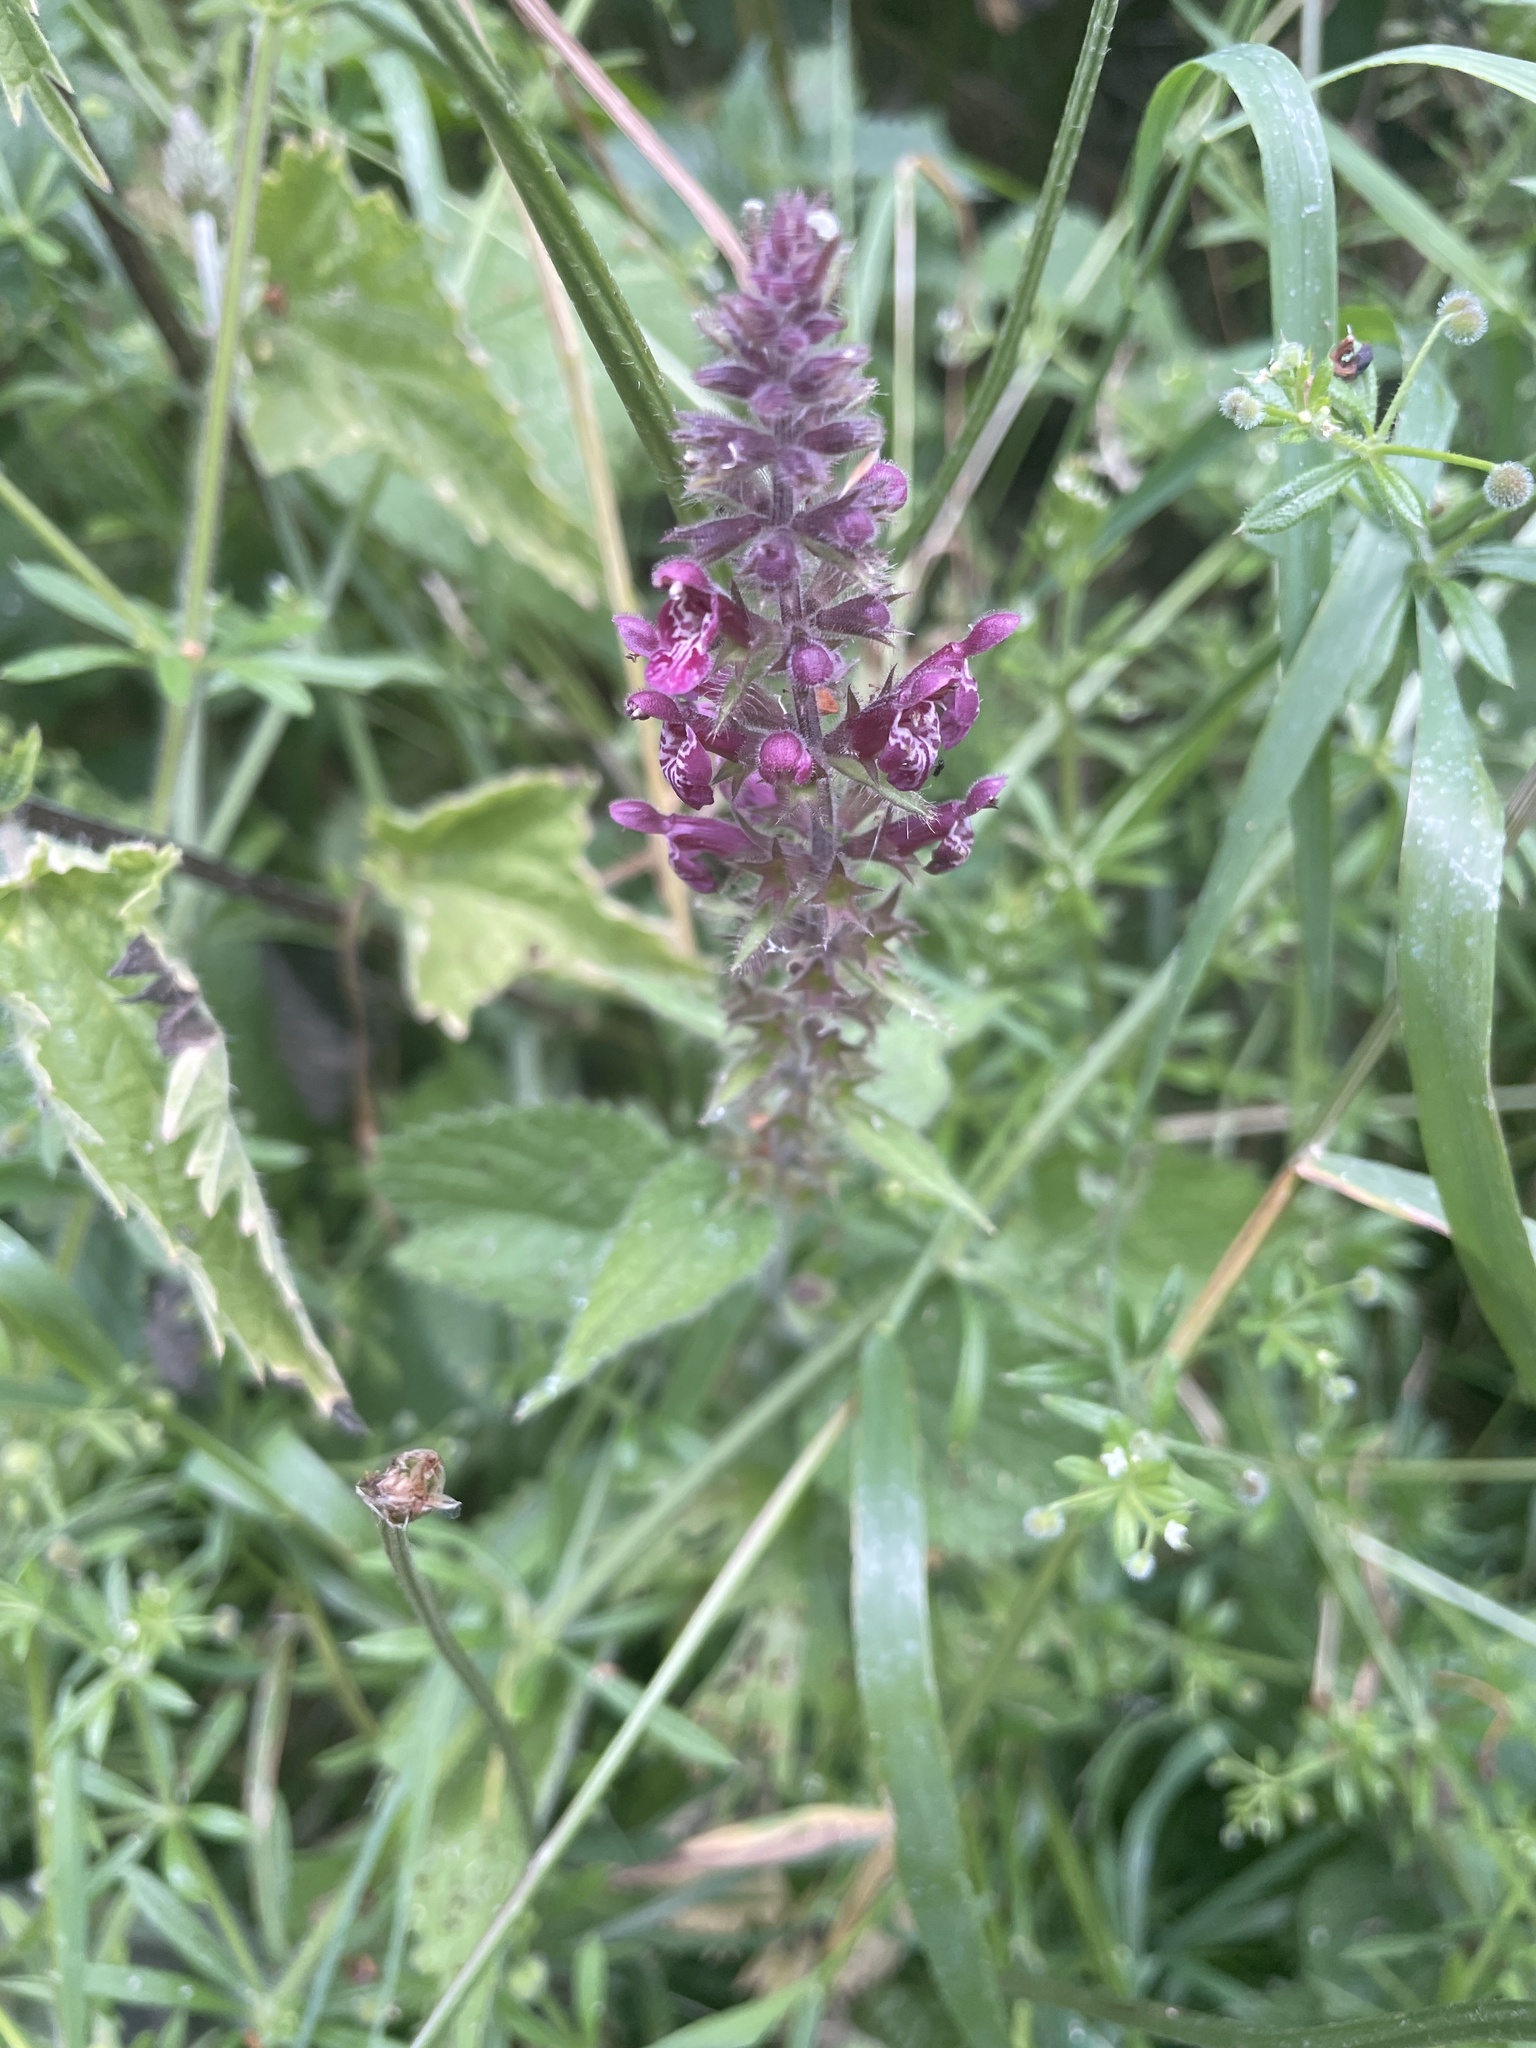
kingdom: Plantae
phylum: Tracheophyta
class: Magnoliopsida
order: Lamiales
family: Lamiaceae
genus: Stachys
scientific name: Stachys sylvatica
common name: Hedge woundwort
